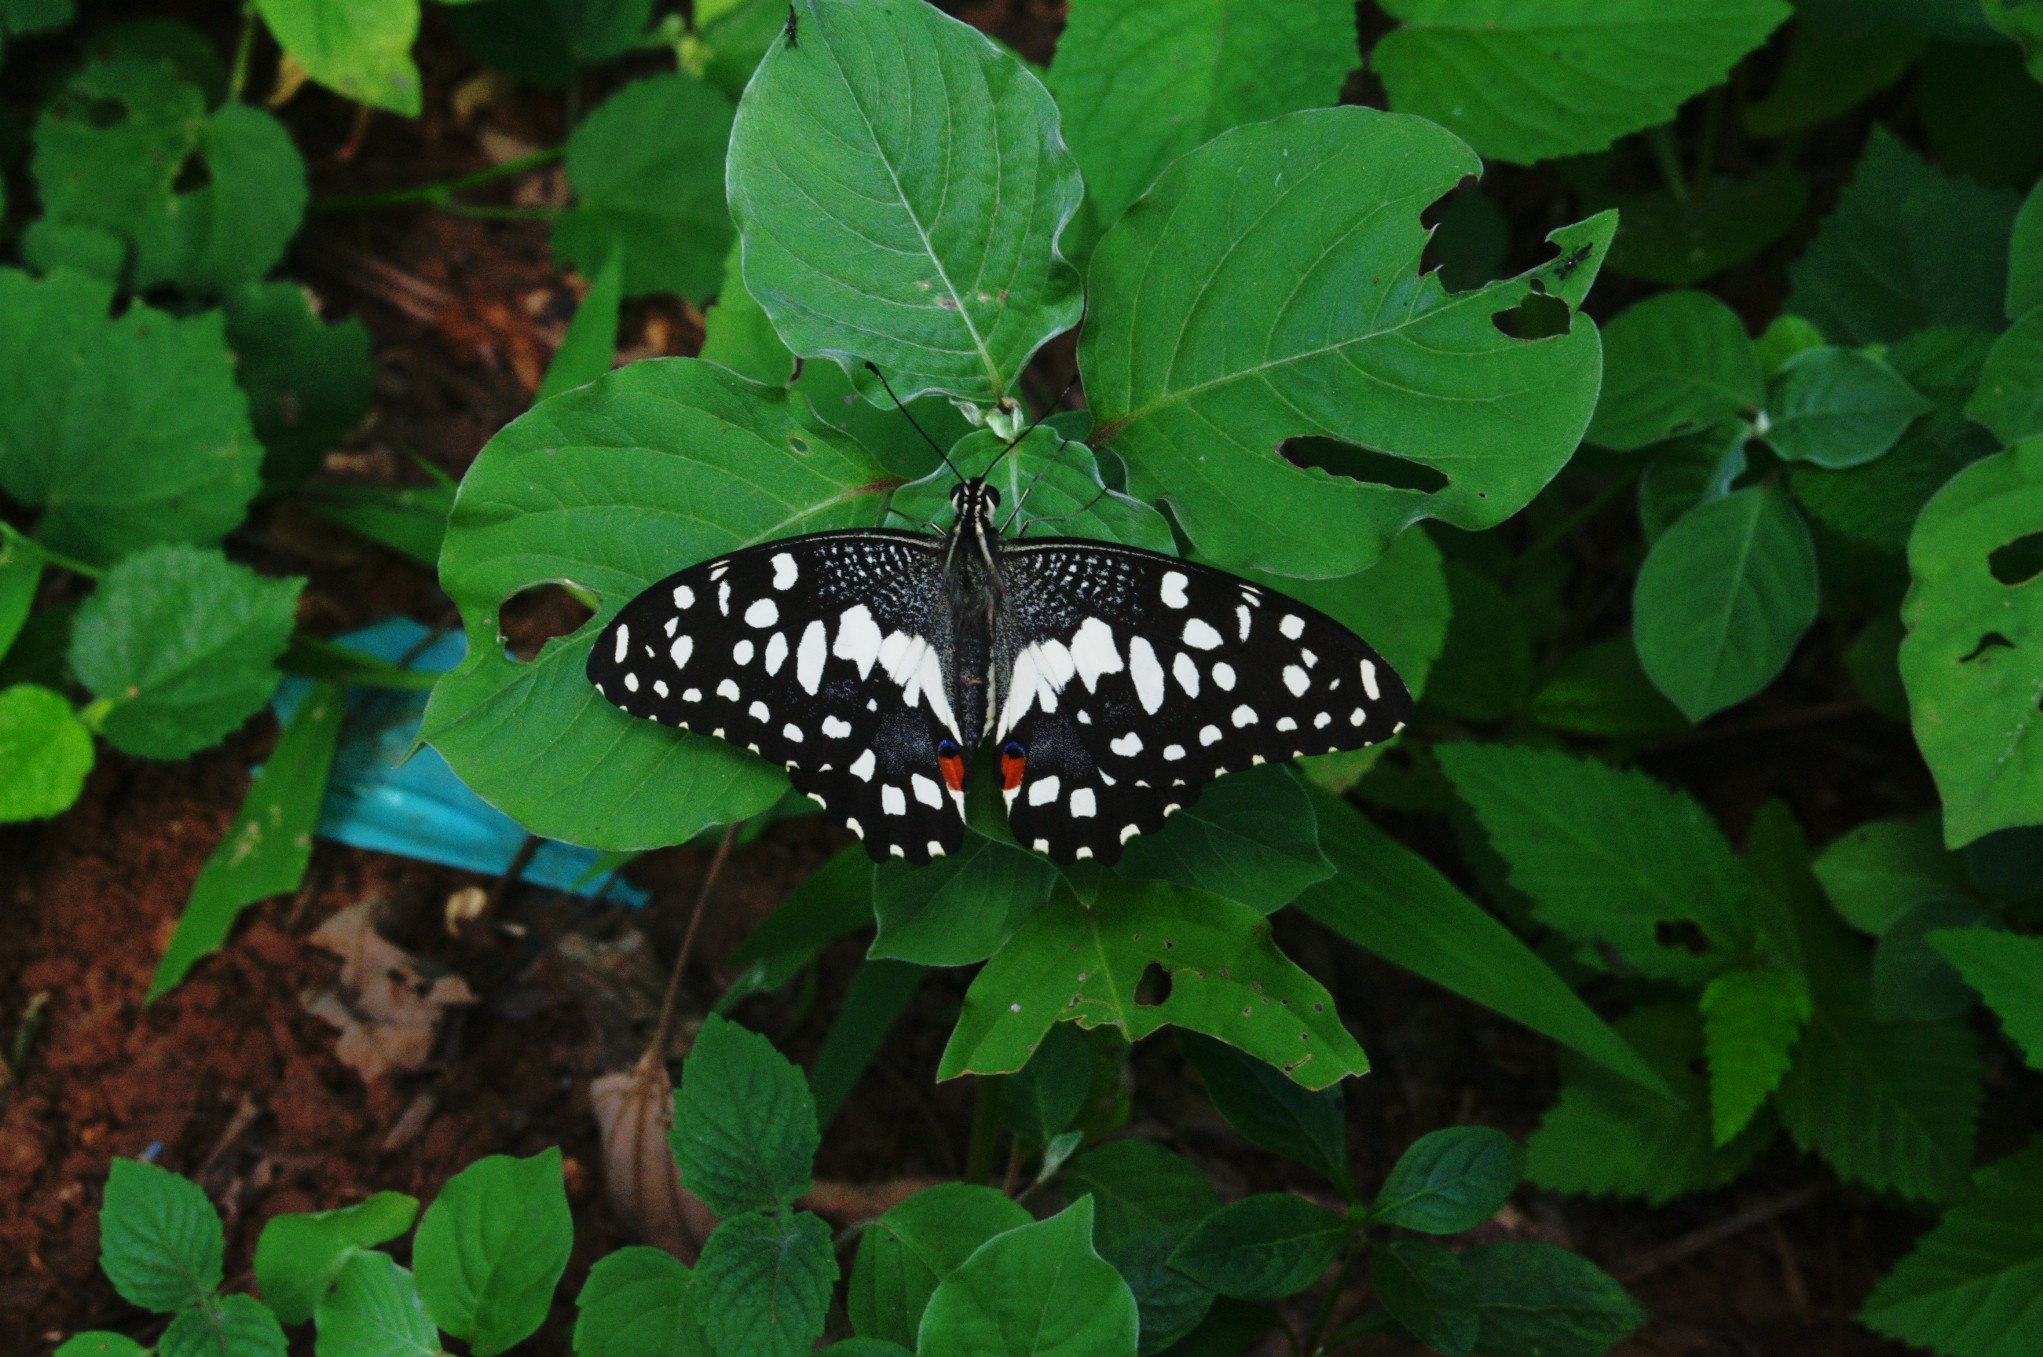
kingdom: Animalia
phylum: Arthropoda
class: Insecta
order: Lepidoptera
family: Papilionidae
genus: Papilio
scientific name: Papilio demoleus
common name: Lime butterfly
